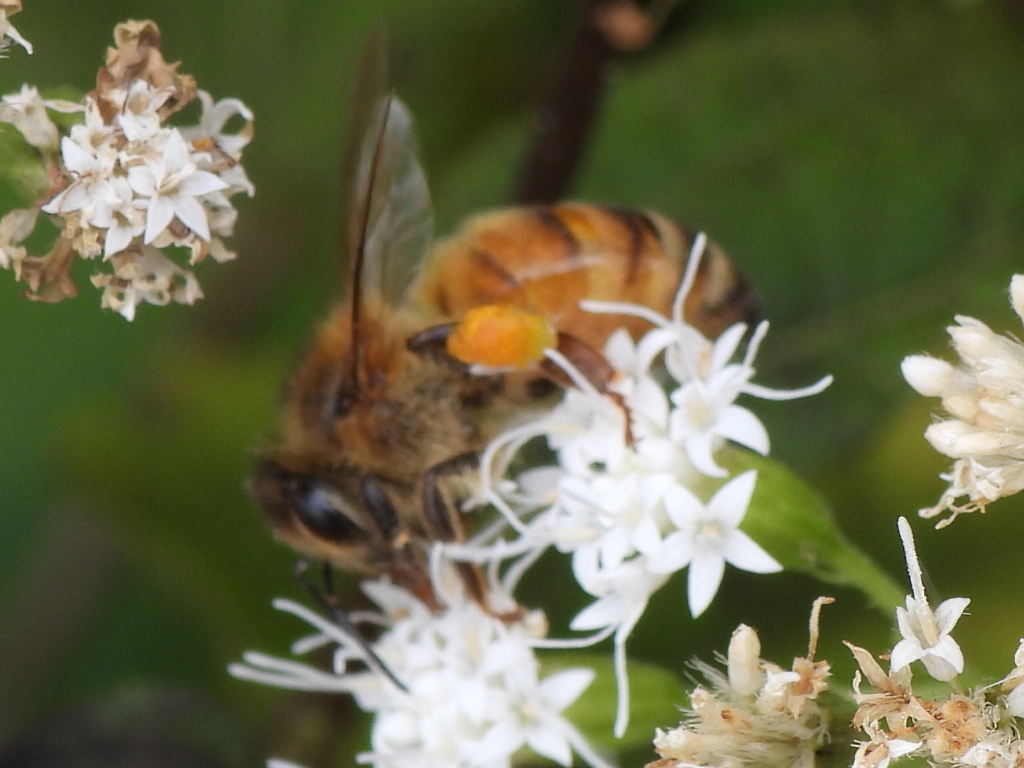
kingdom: Animalia
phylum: Arthropoda
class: Insecta
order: Hymenoptera
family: Apidae
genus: Apis
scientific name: Apis mellifera
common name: Honey bee
